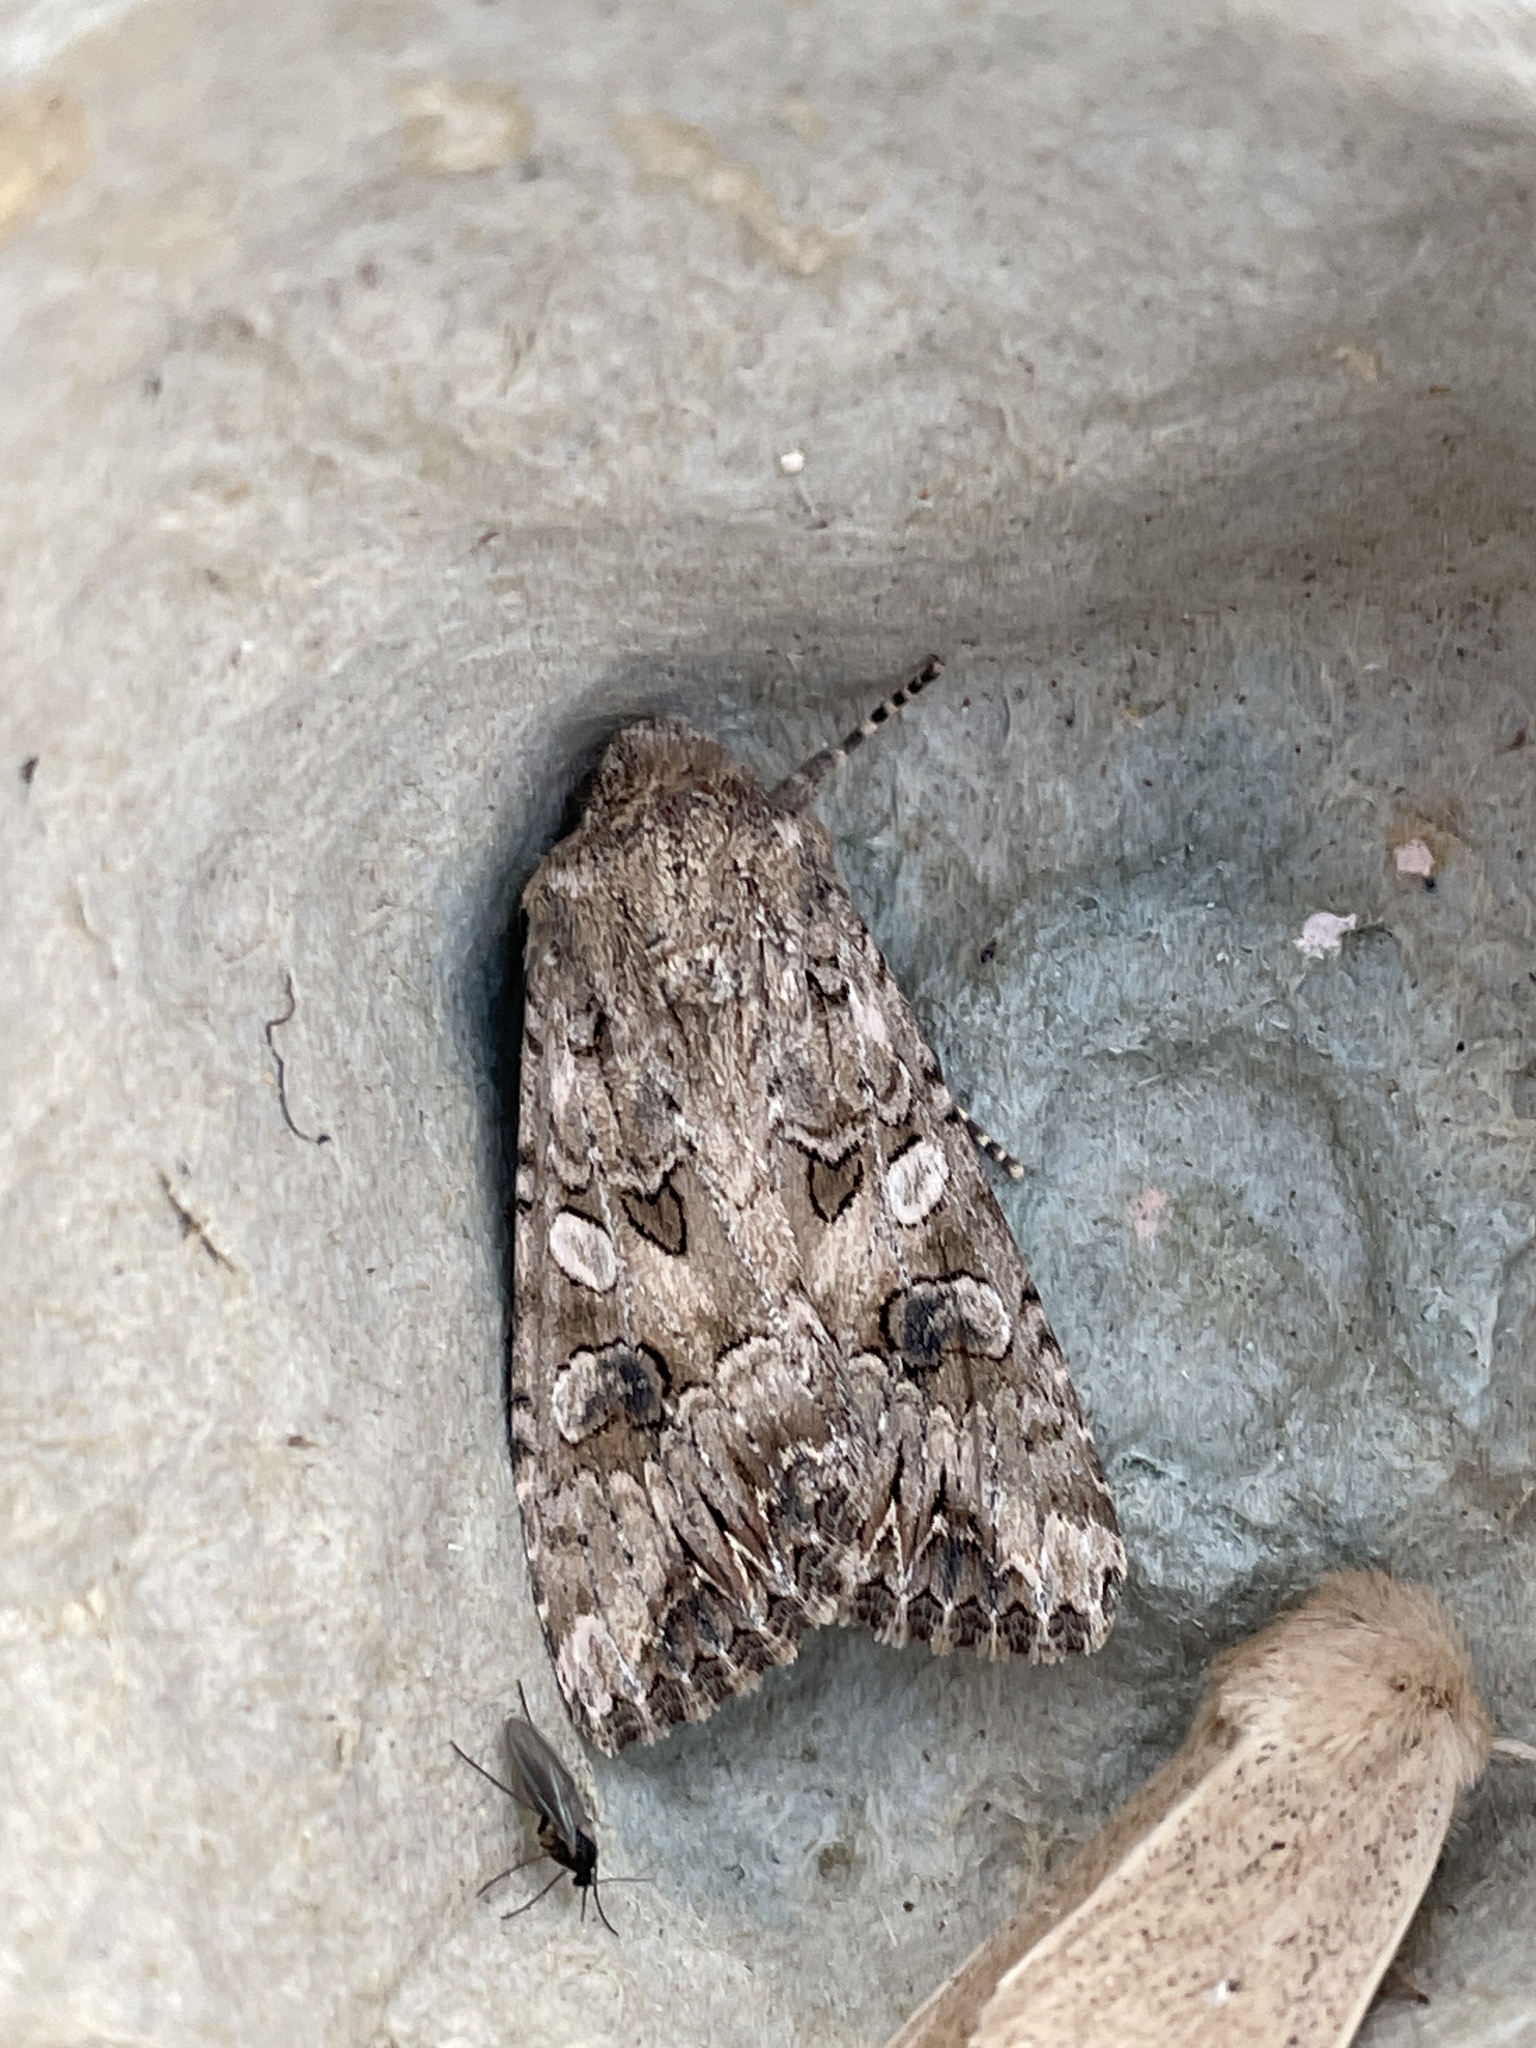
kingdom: Animalia
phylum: Arthropoda
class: Insecta
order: Lepidoptera
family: Noctuidae
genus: Anarta
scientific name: Anarta trifolii
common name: Clover cutworm moth
